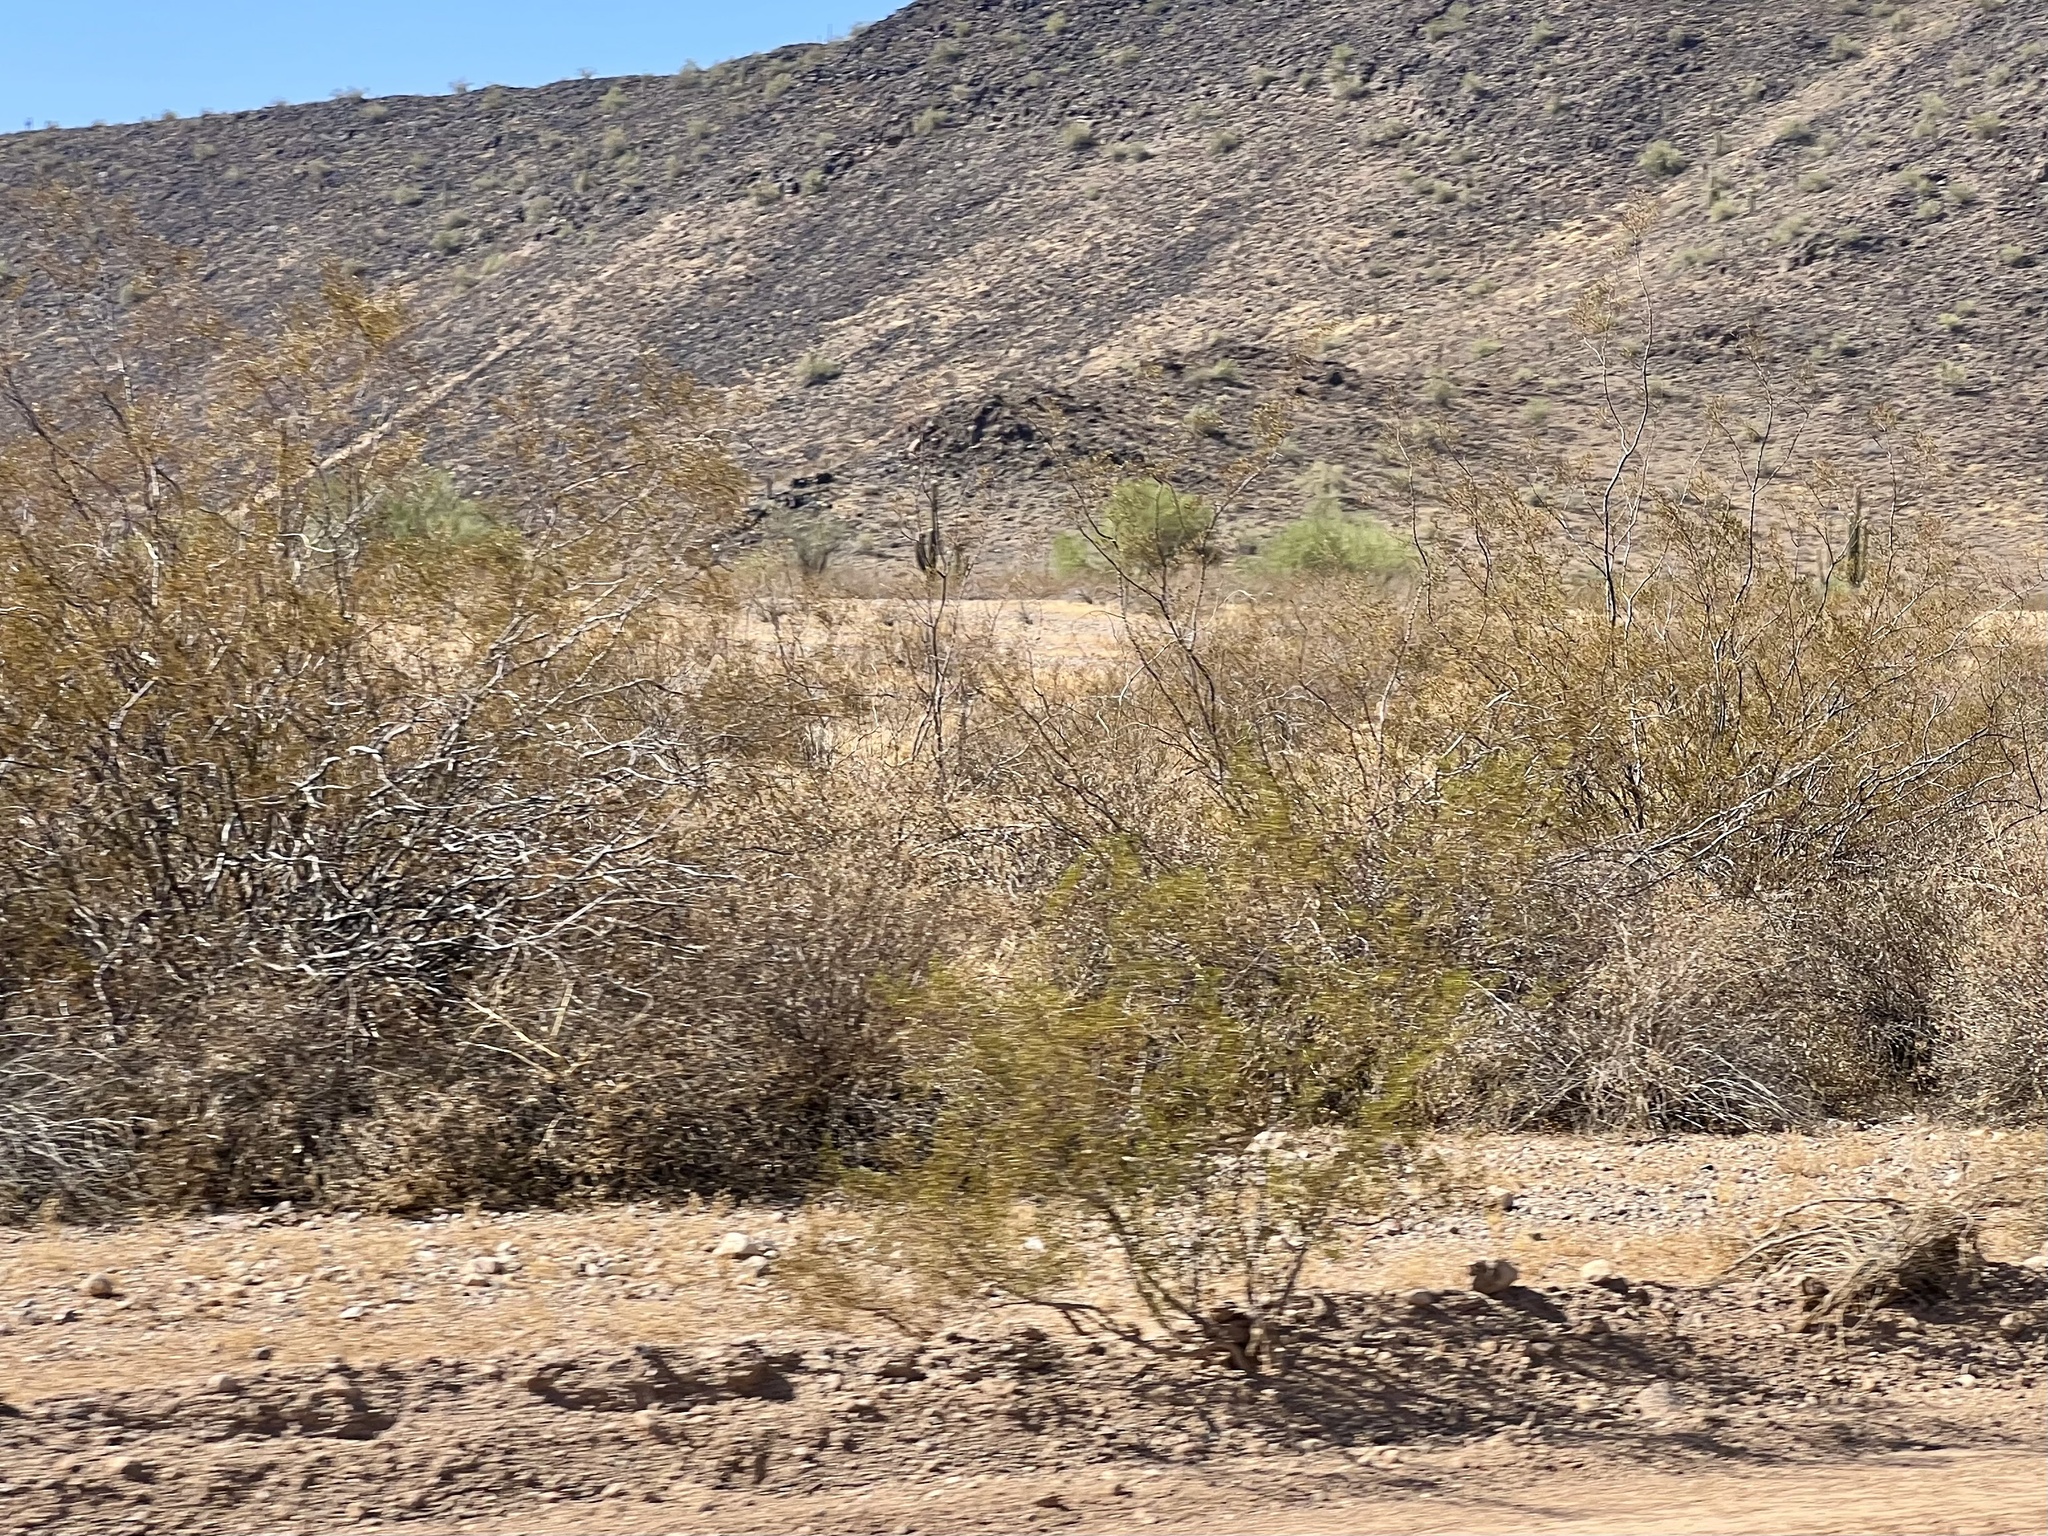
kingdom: Plantae
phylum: Tracheophyta
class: Magnoliopsida
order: Zygophyllales
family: Zygophyllaceae
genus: Larrea
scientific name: Larrea tridentata
